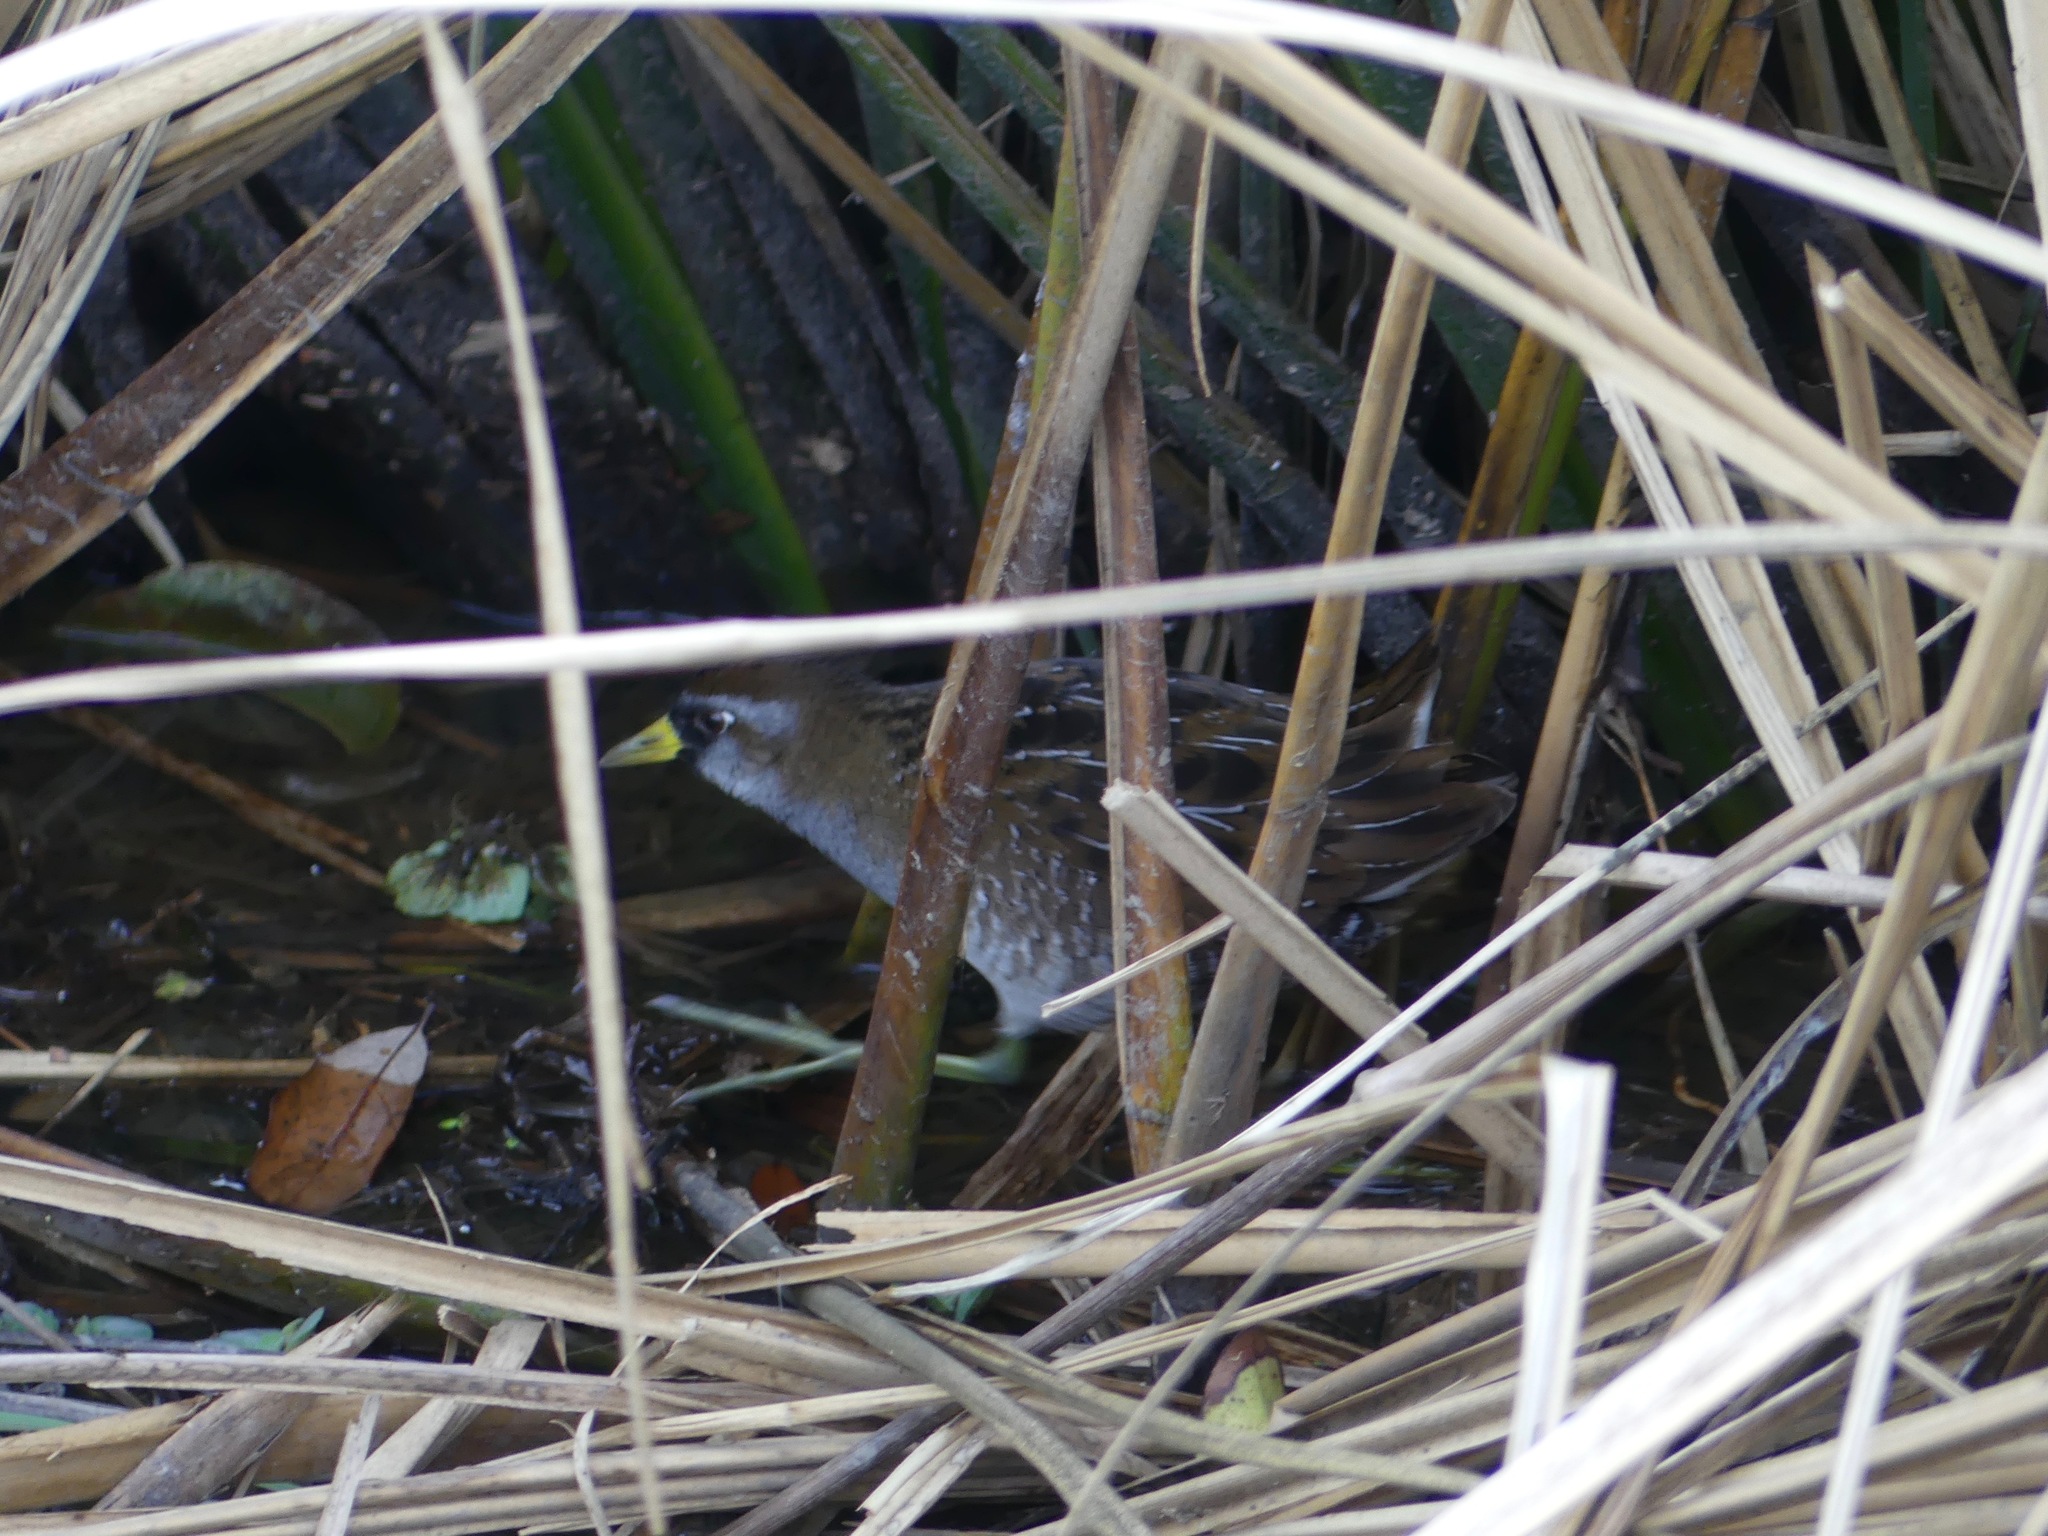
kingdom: Animalia
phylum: Chordata
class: Aves
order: Gruiformes
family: Rallidae
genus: Porzana
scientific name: Porzana carolina
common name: Sora
